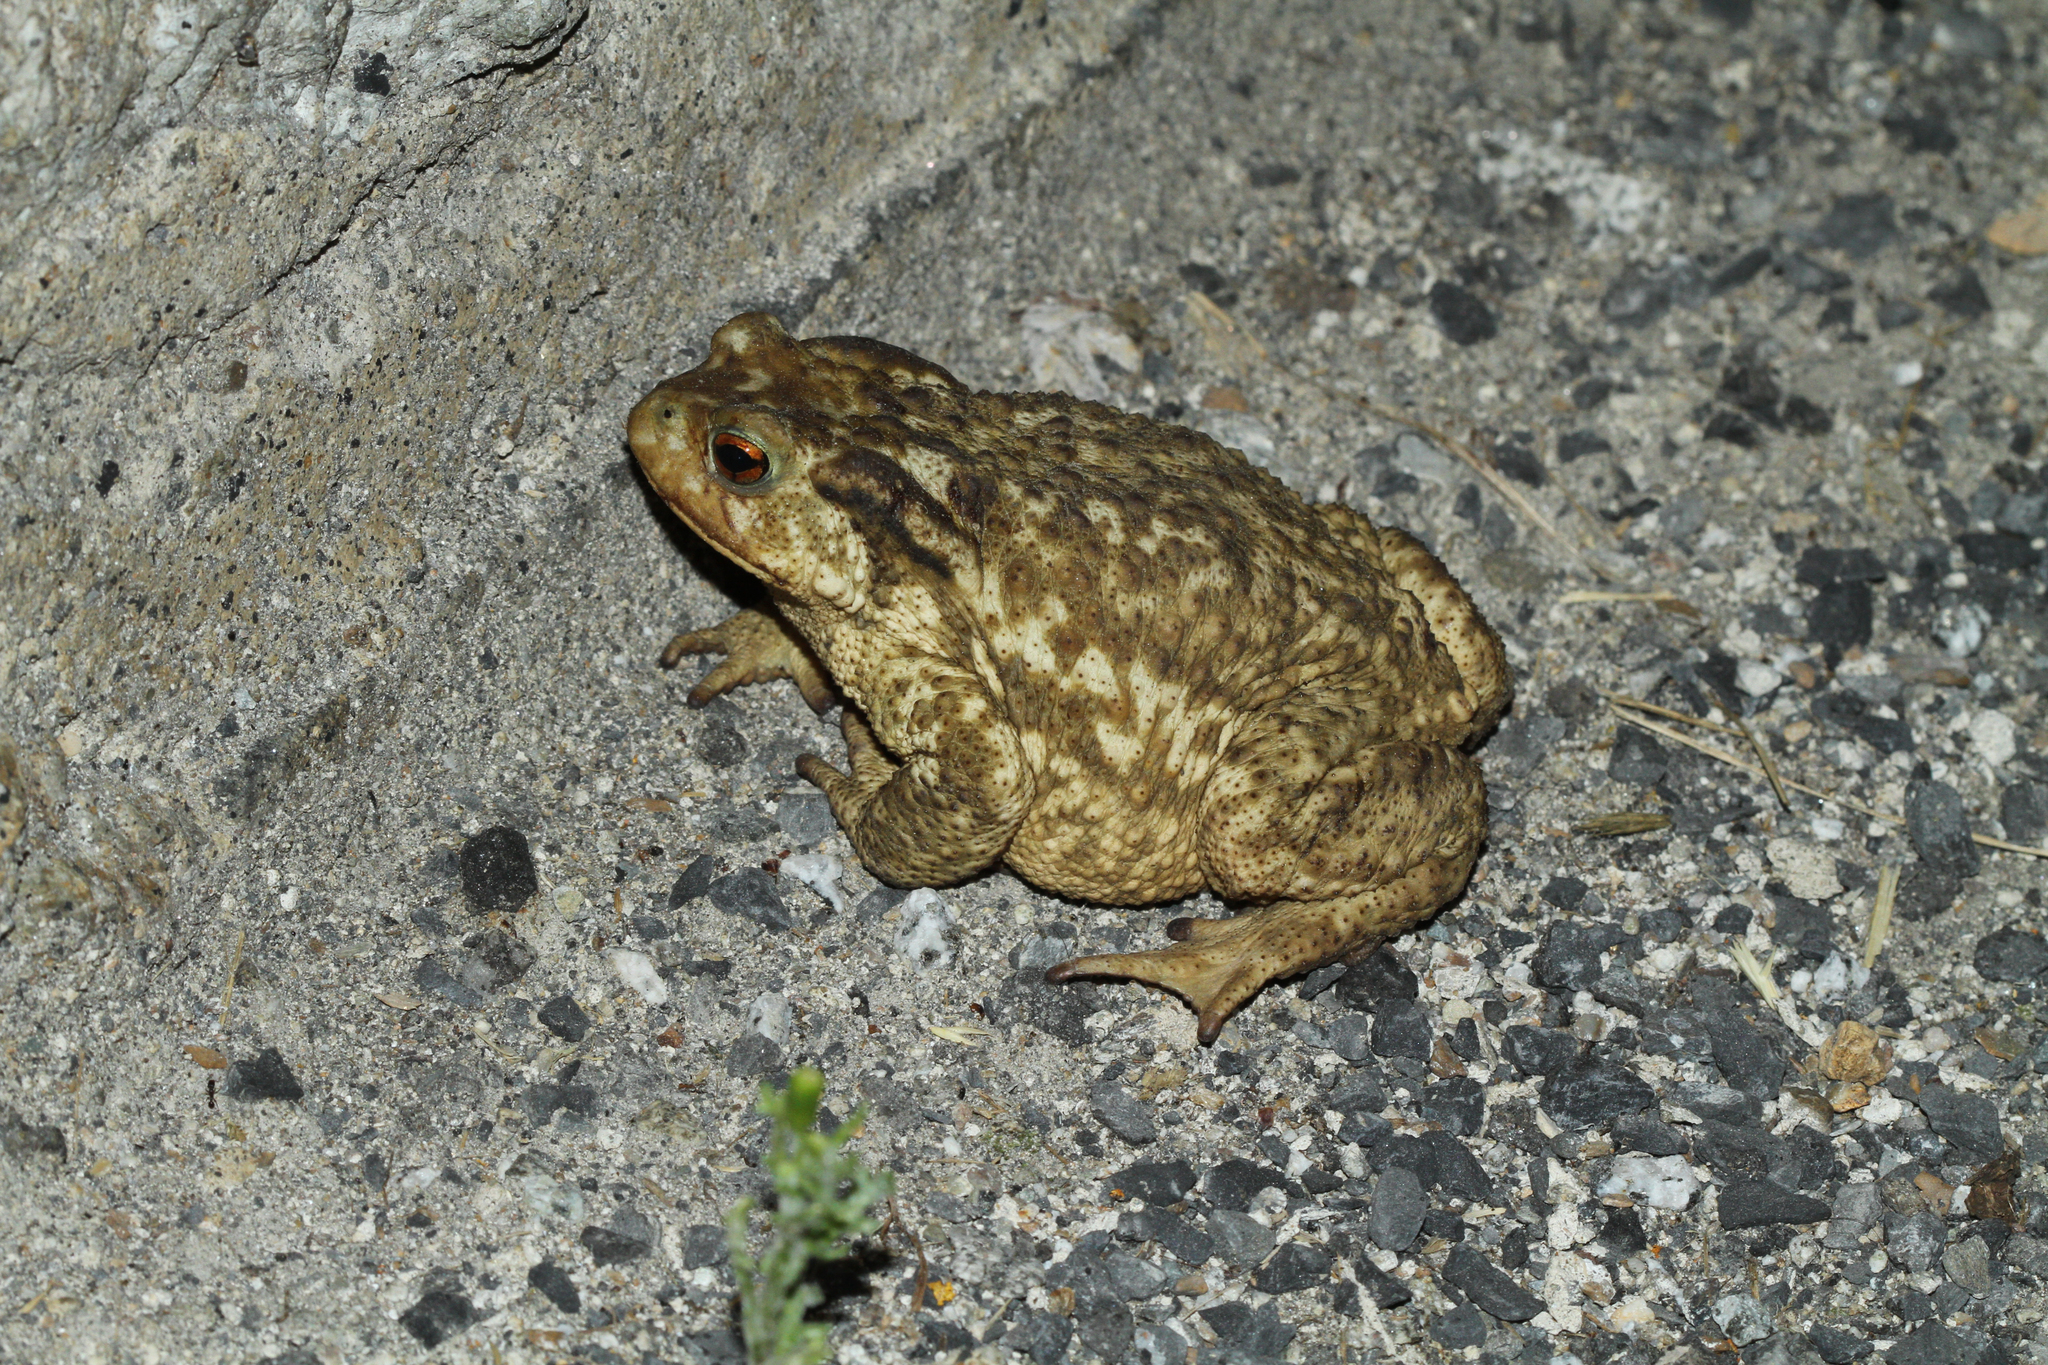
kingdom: Animalia
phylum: Chordata
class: Amphibia
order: Anura
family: Bufonidae
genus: Bufo
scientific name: Bufo spinosus
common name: Western common toad
